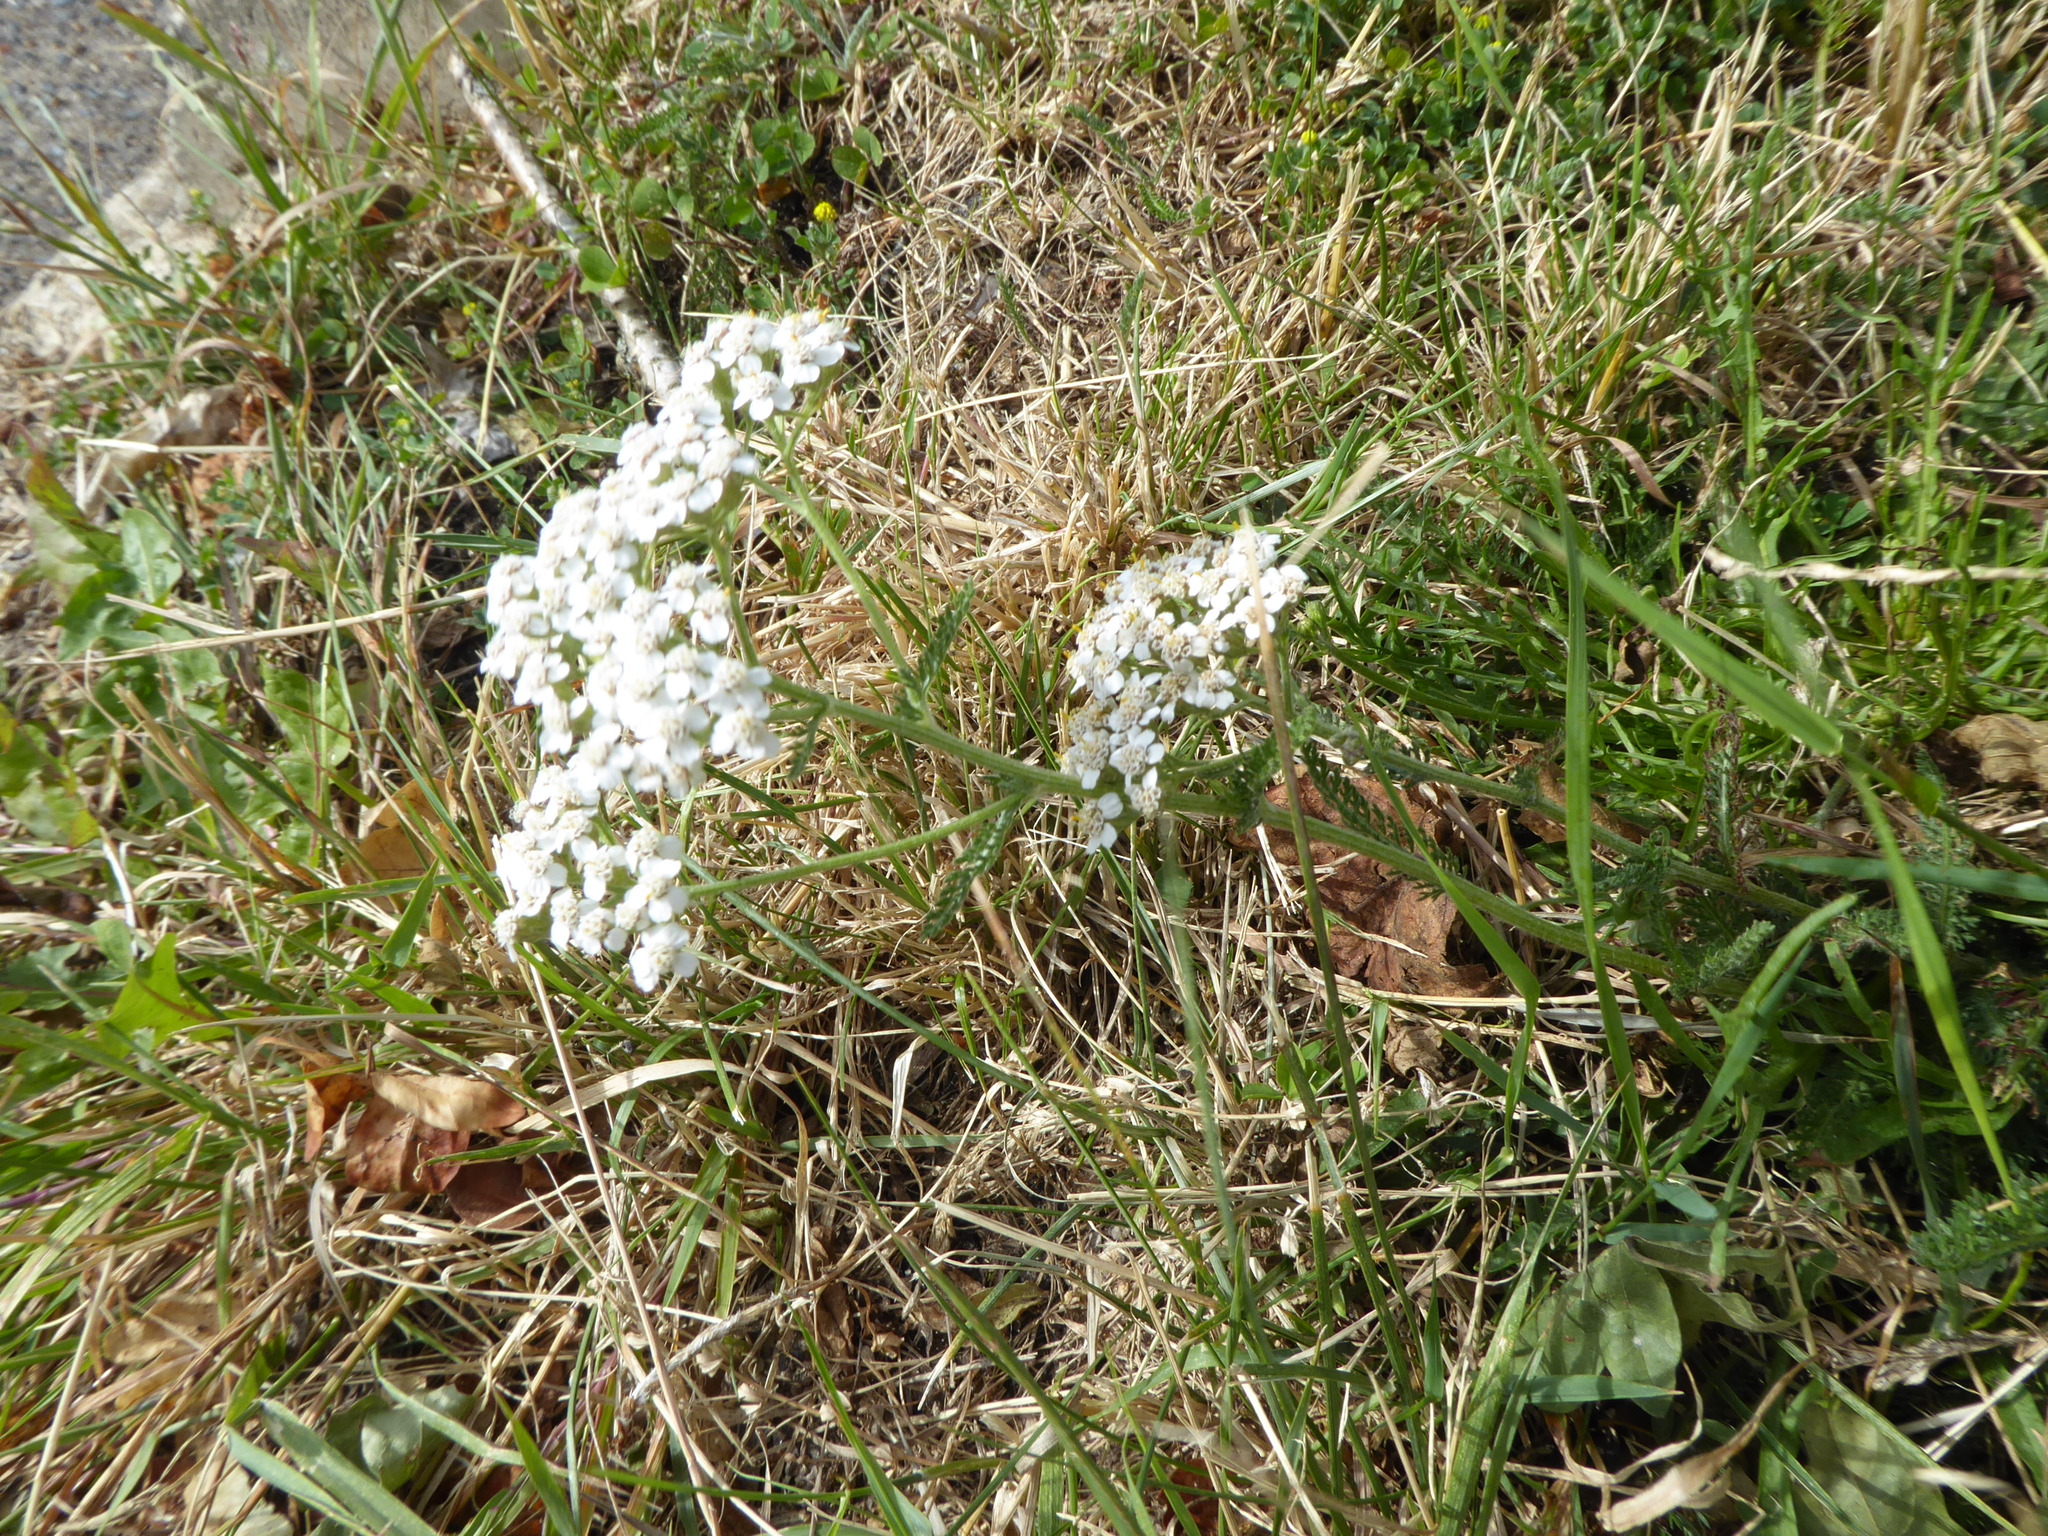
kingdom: Plantae
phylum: Tracheophyta
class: Magnoliopsida
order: Asterales
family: Asteraceae
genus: Achillea
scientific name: Achillea millefolium
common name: Yarrow
